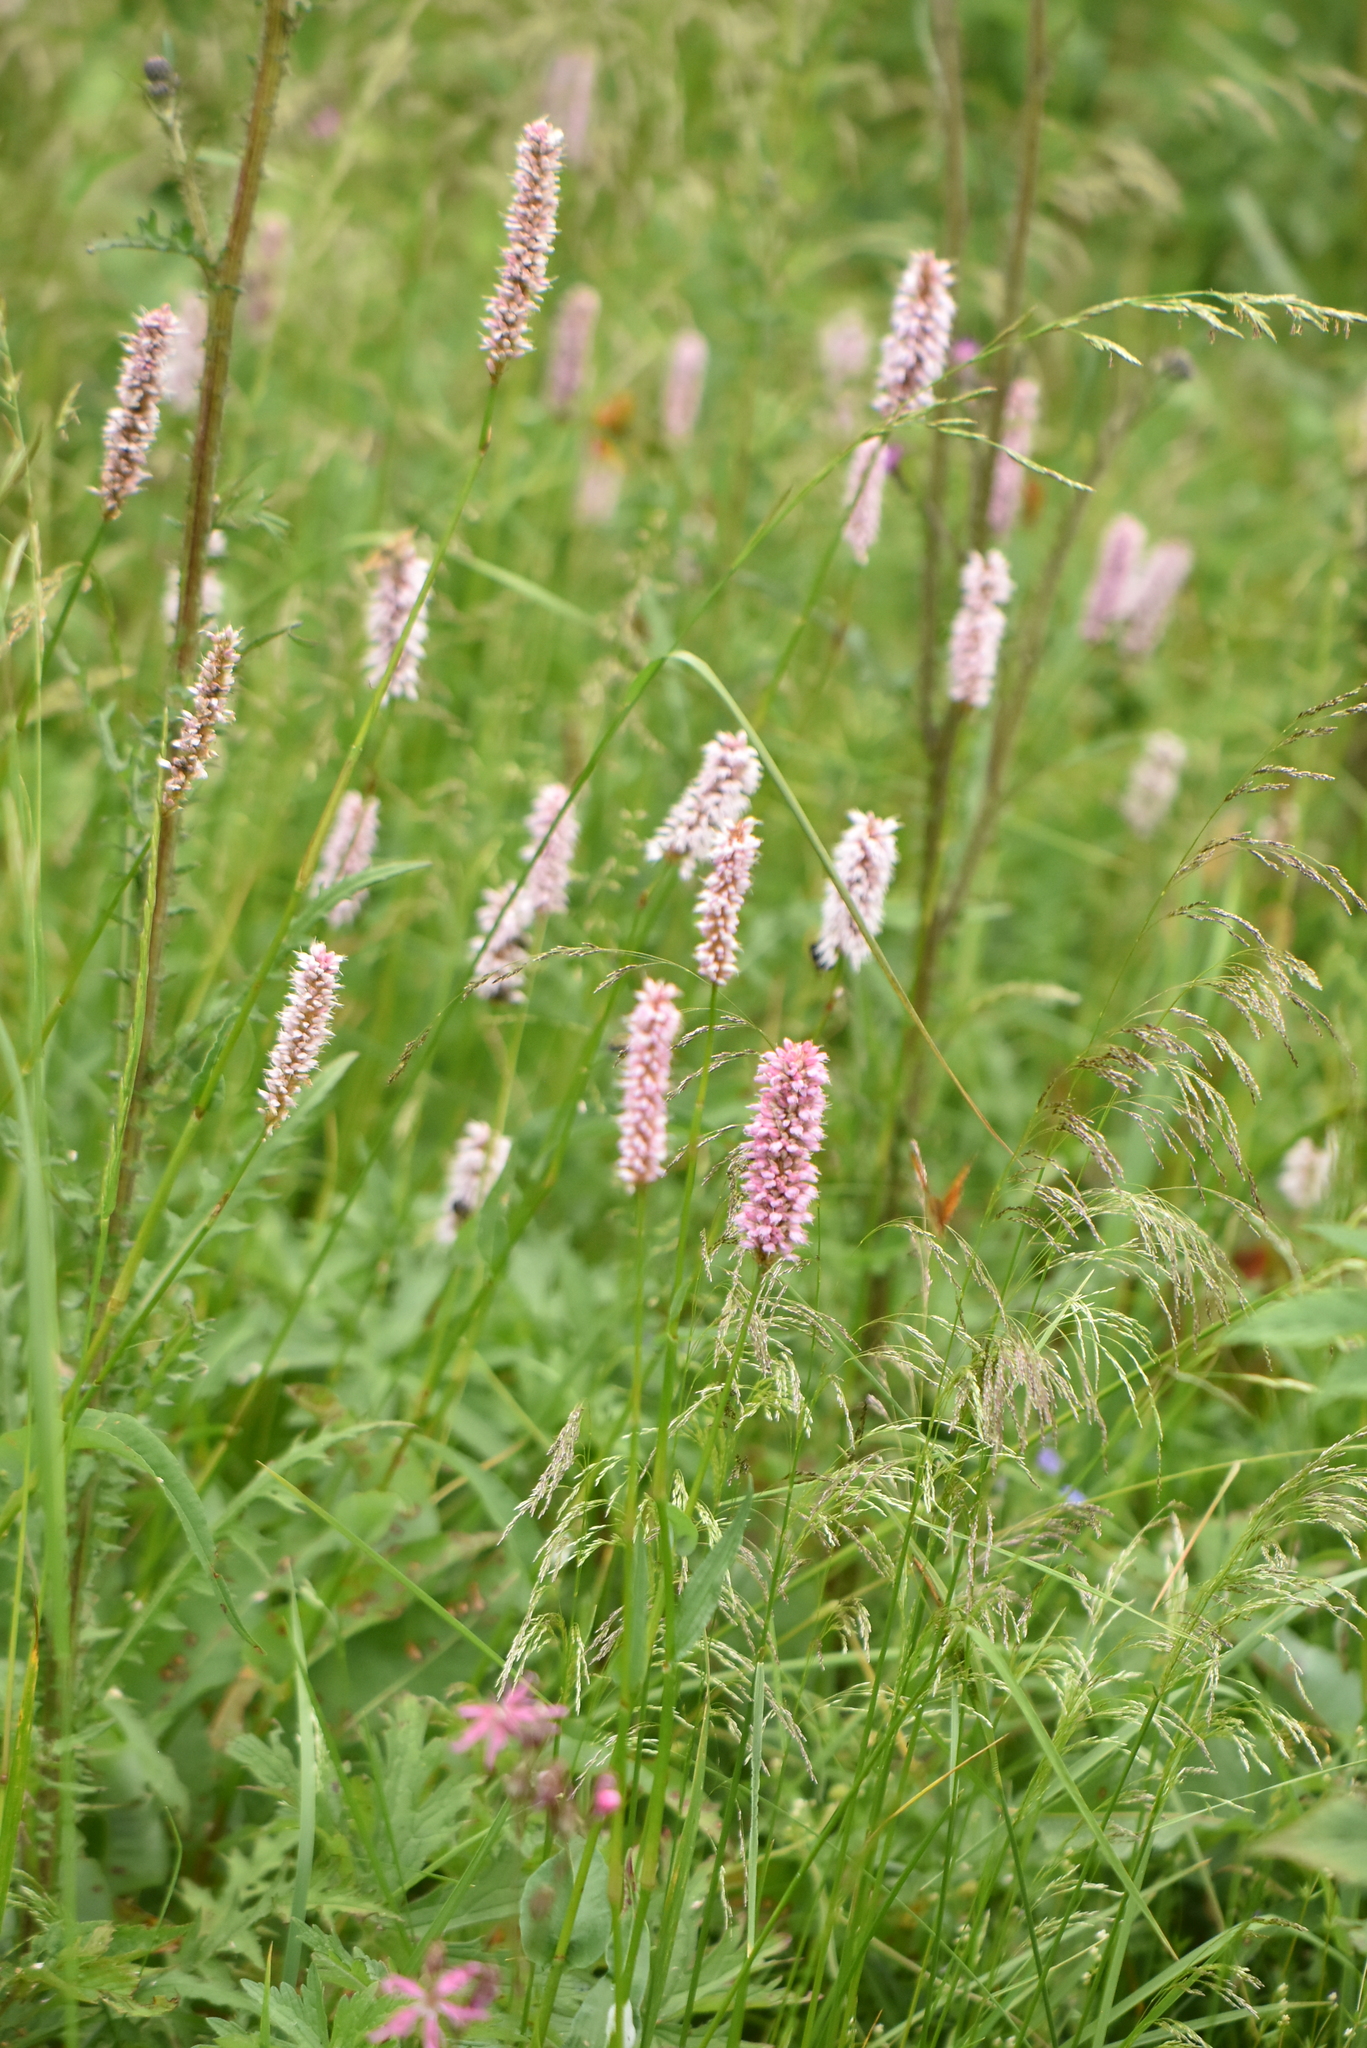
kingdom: Plantae
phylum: Tracheophyta
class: Magnoliopsida
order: Caryophyllales
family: Polygonaceae
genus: Bistorta
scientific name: Bistorta officinalis
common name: Common bistort
